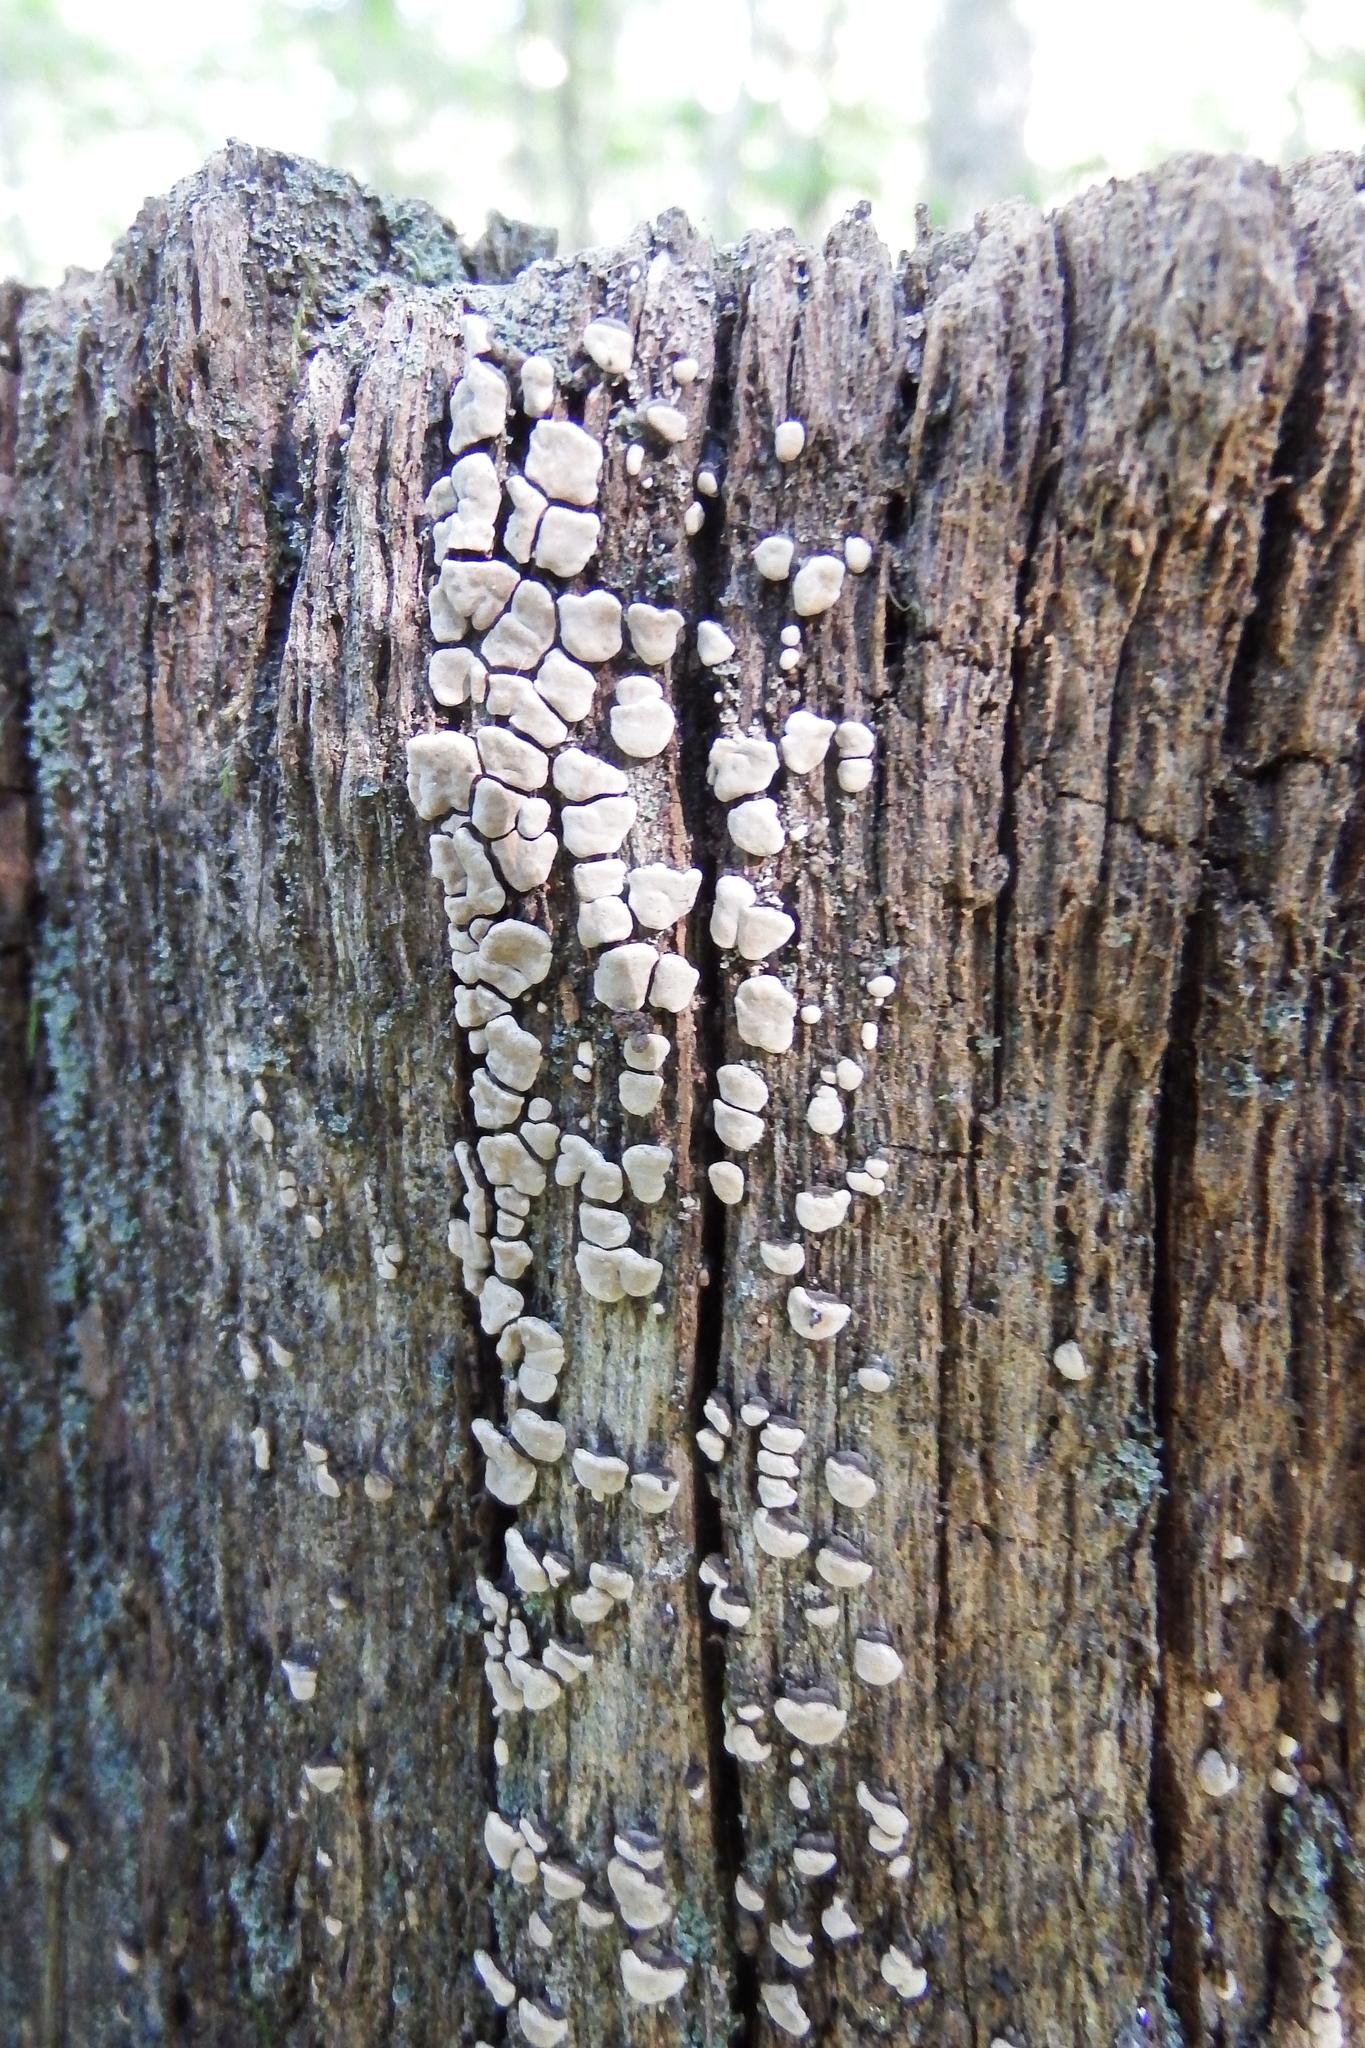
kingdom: Fungi
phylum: Basidiomycota
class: Agaricomycetes
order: Russulales
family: Stereaceae
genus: Xylobolus
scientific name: Xylobolus frustulatus
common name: Ceramic parchment
